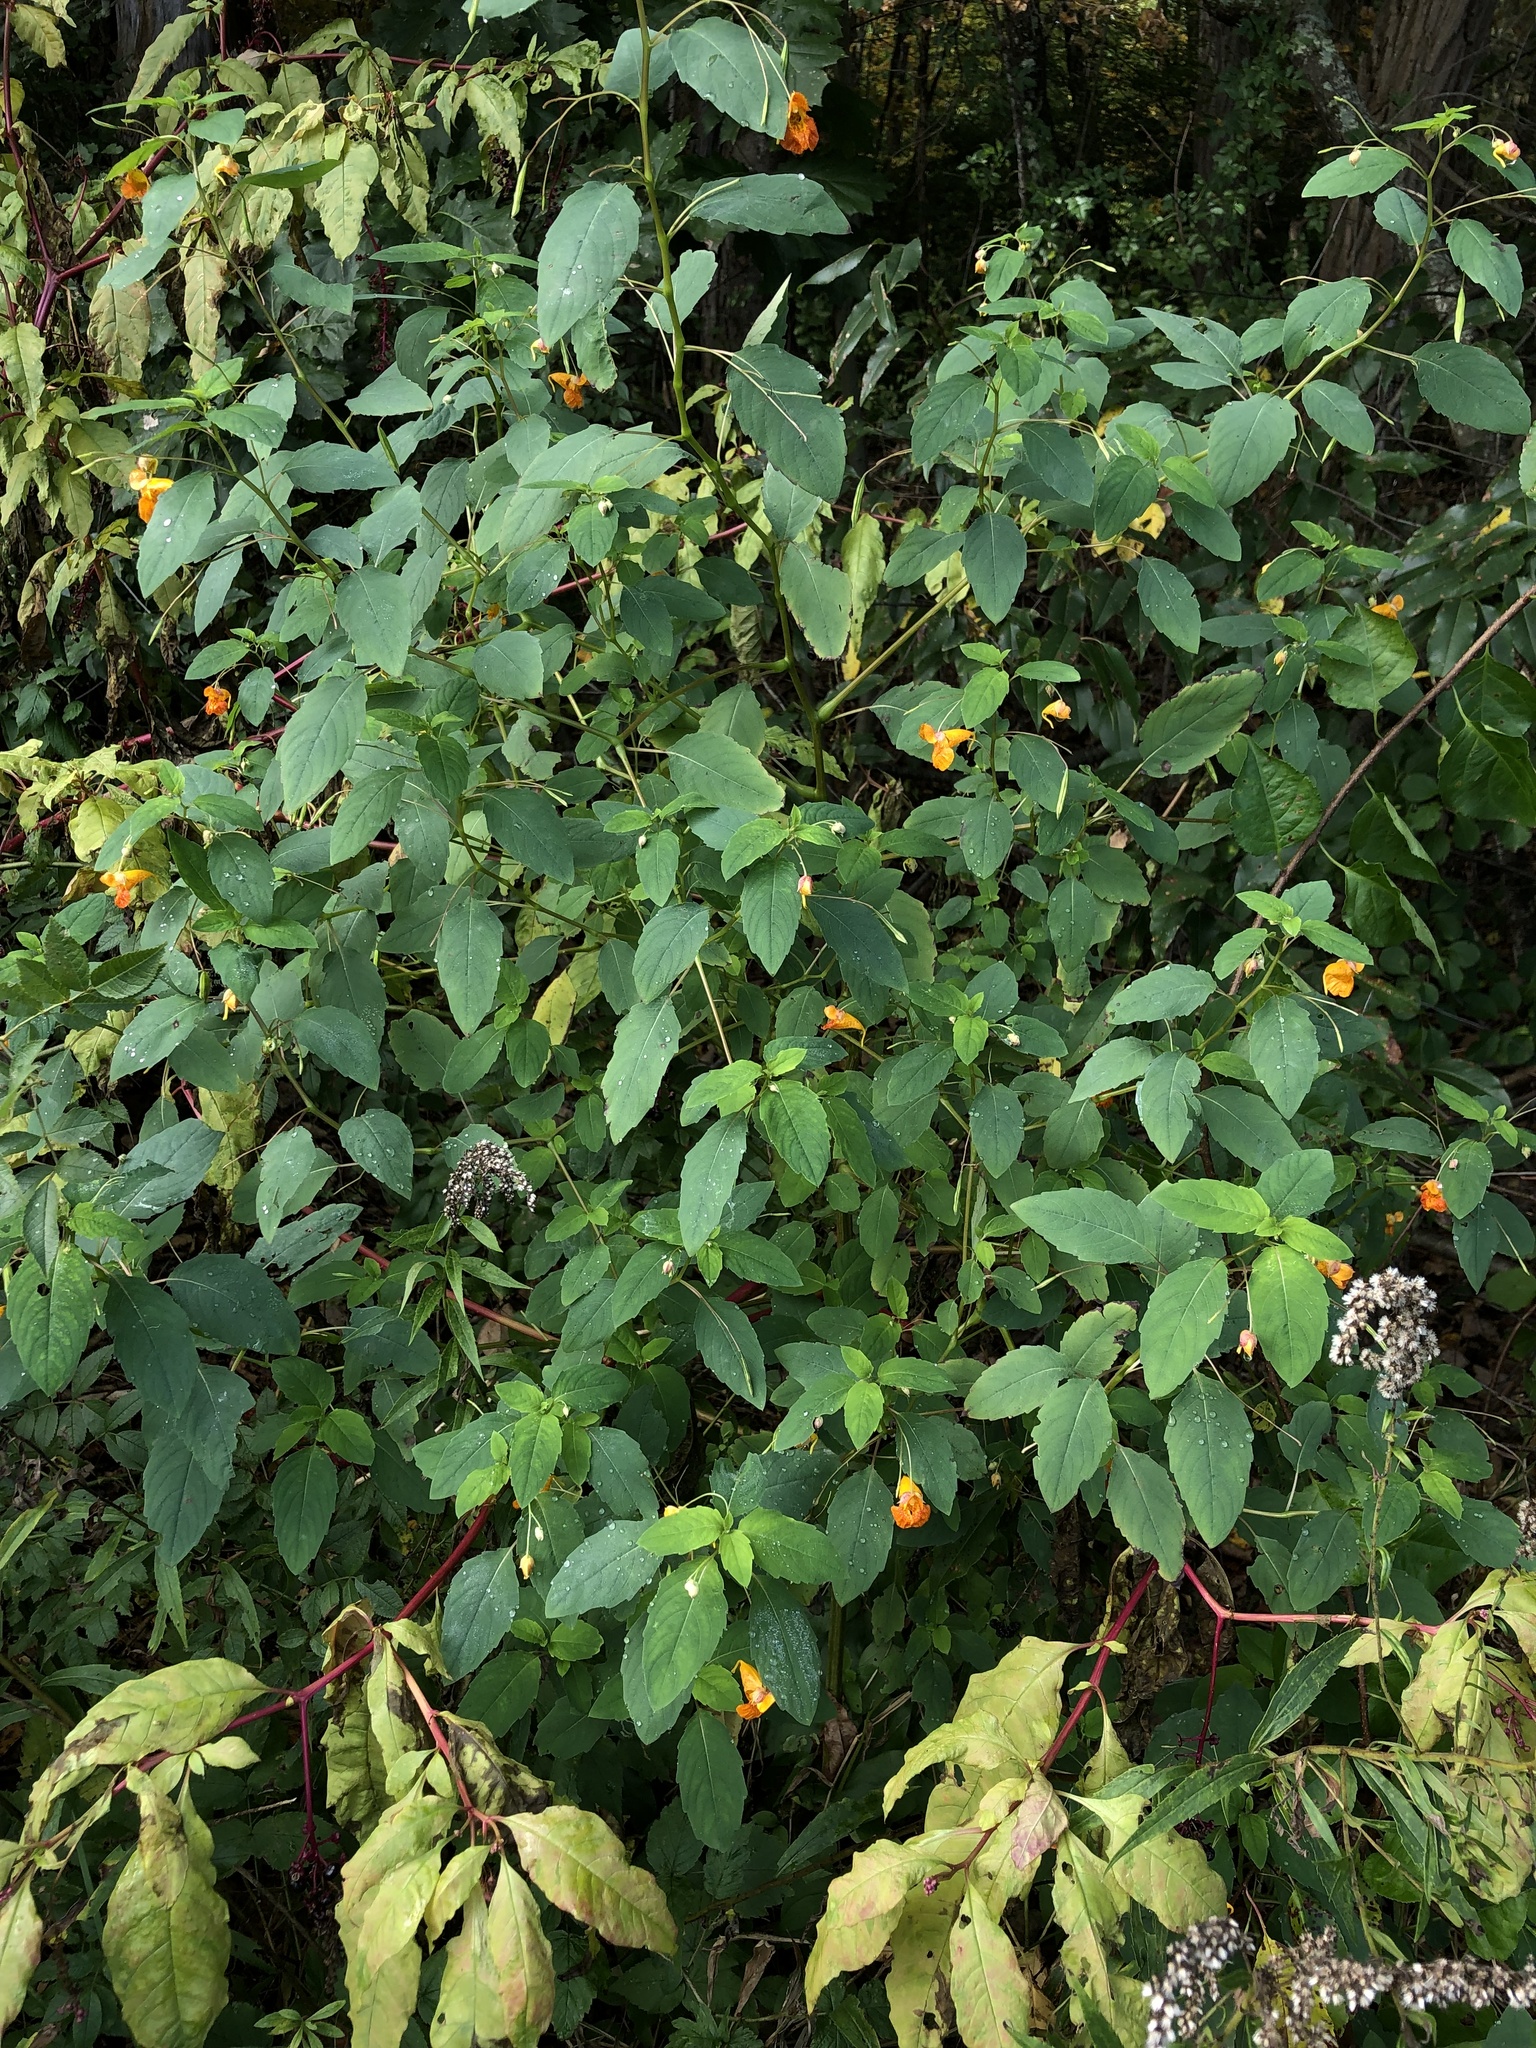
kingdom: Plantae
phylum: Tracheophyta
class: Magnoliopsida
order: Ericales
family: Balsaminaceae
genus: Impatiens
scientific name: Impatiens capensis
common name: Orange balsam
